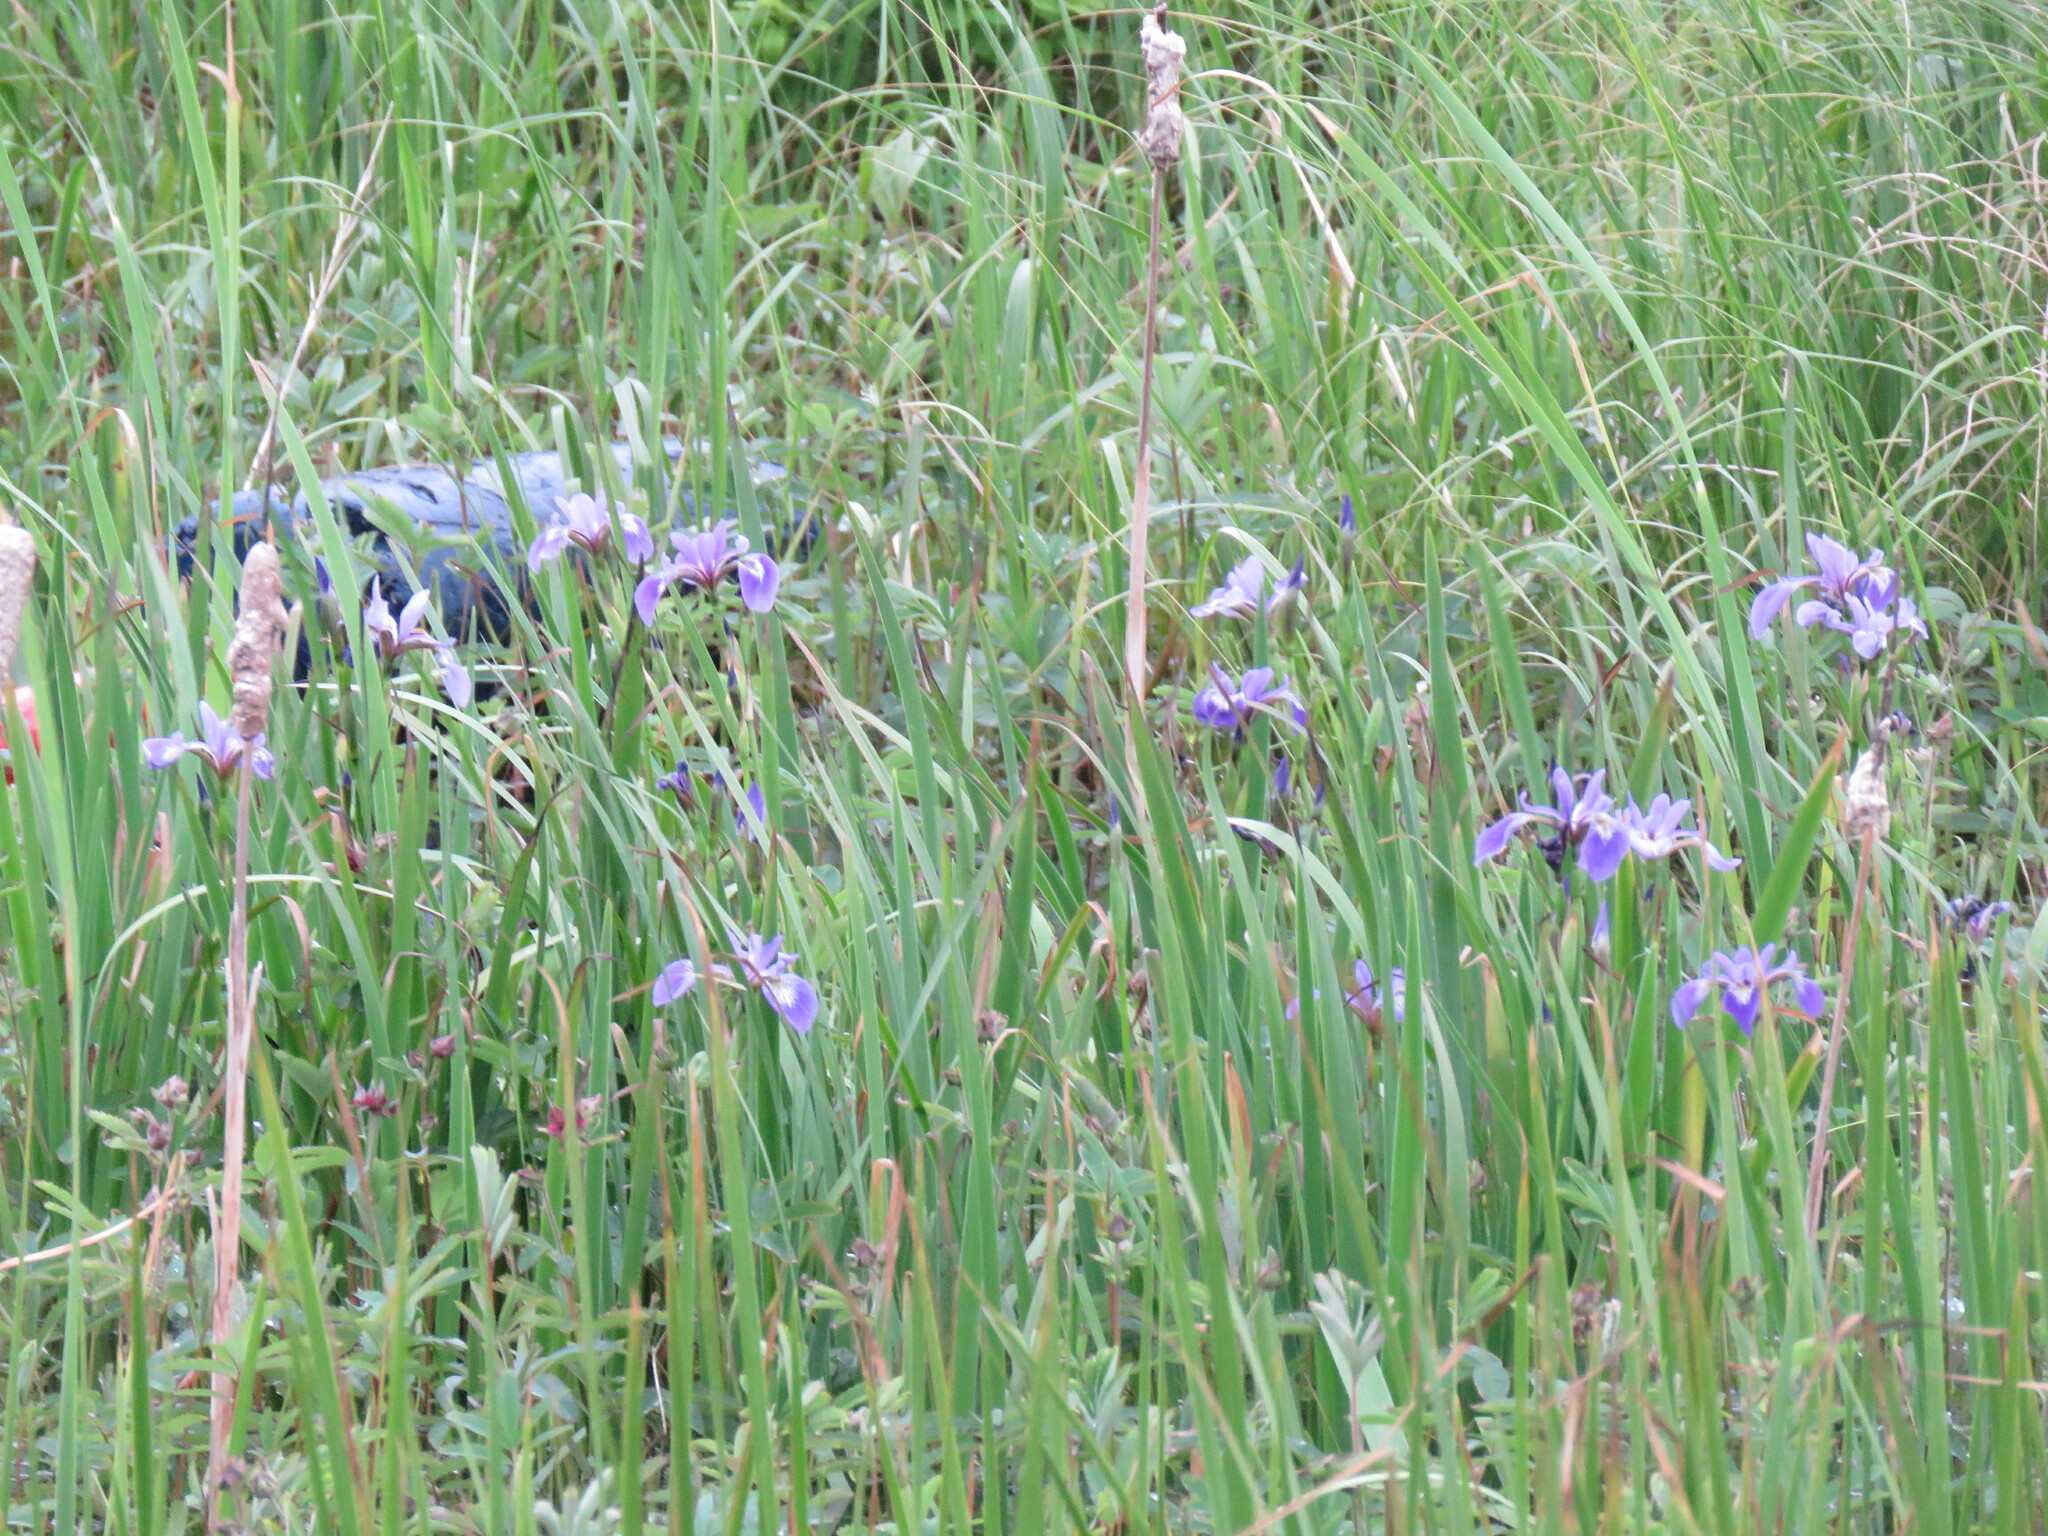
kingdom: Plantae
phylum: Tracheophyta
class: Liliopsida
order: Asparagales
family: Iridaceae
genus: Iris
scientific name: Iris versicolor
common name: Purple iris
